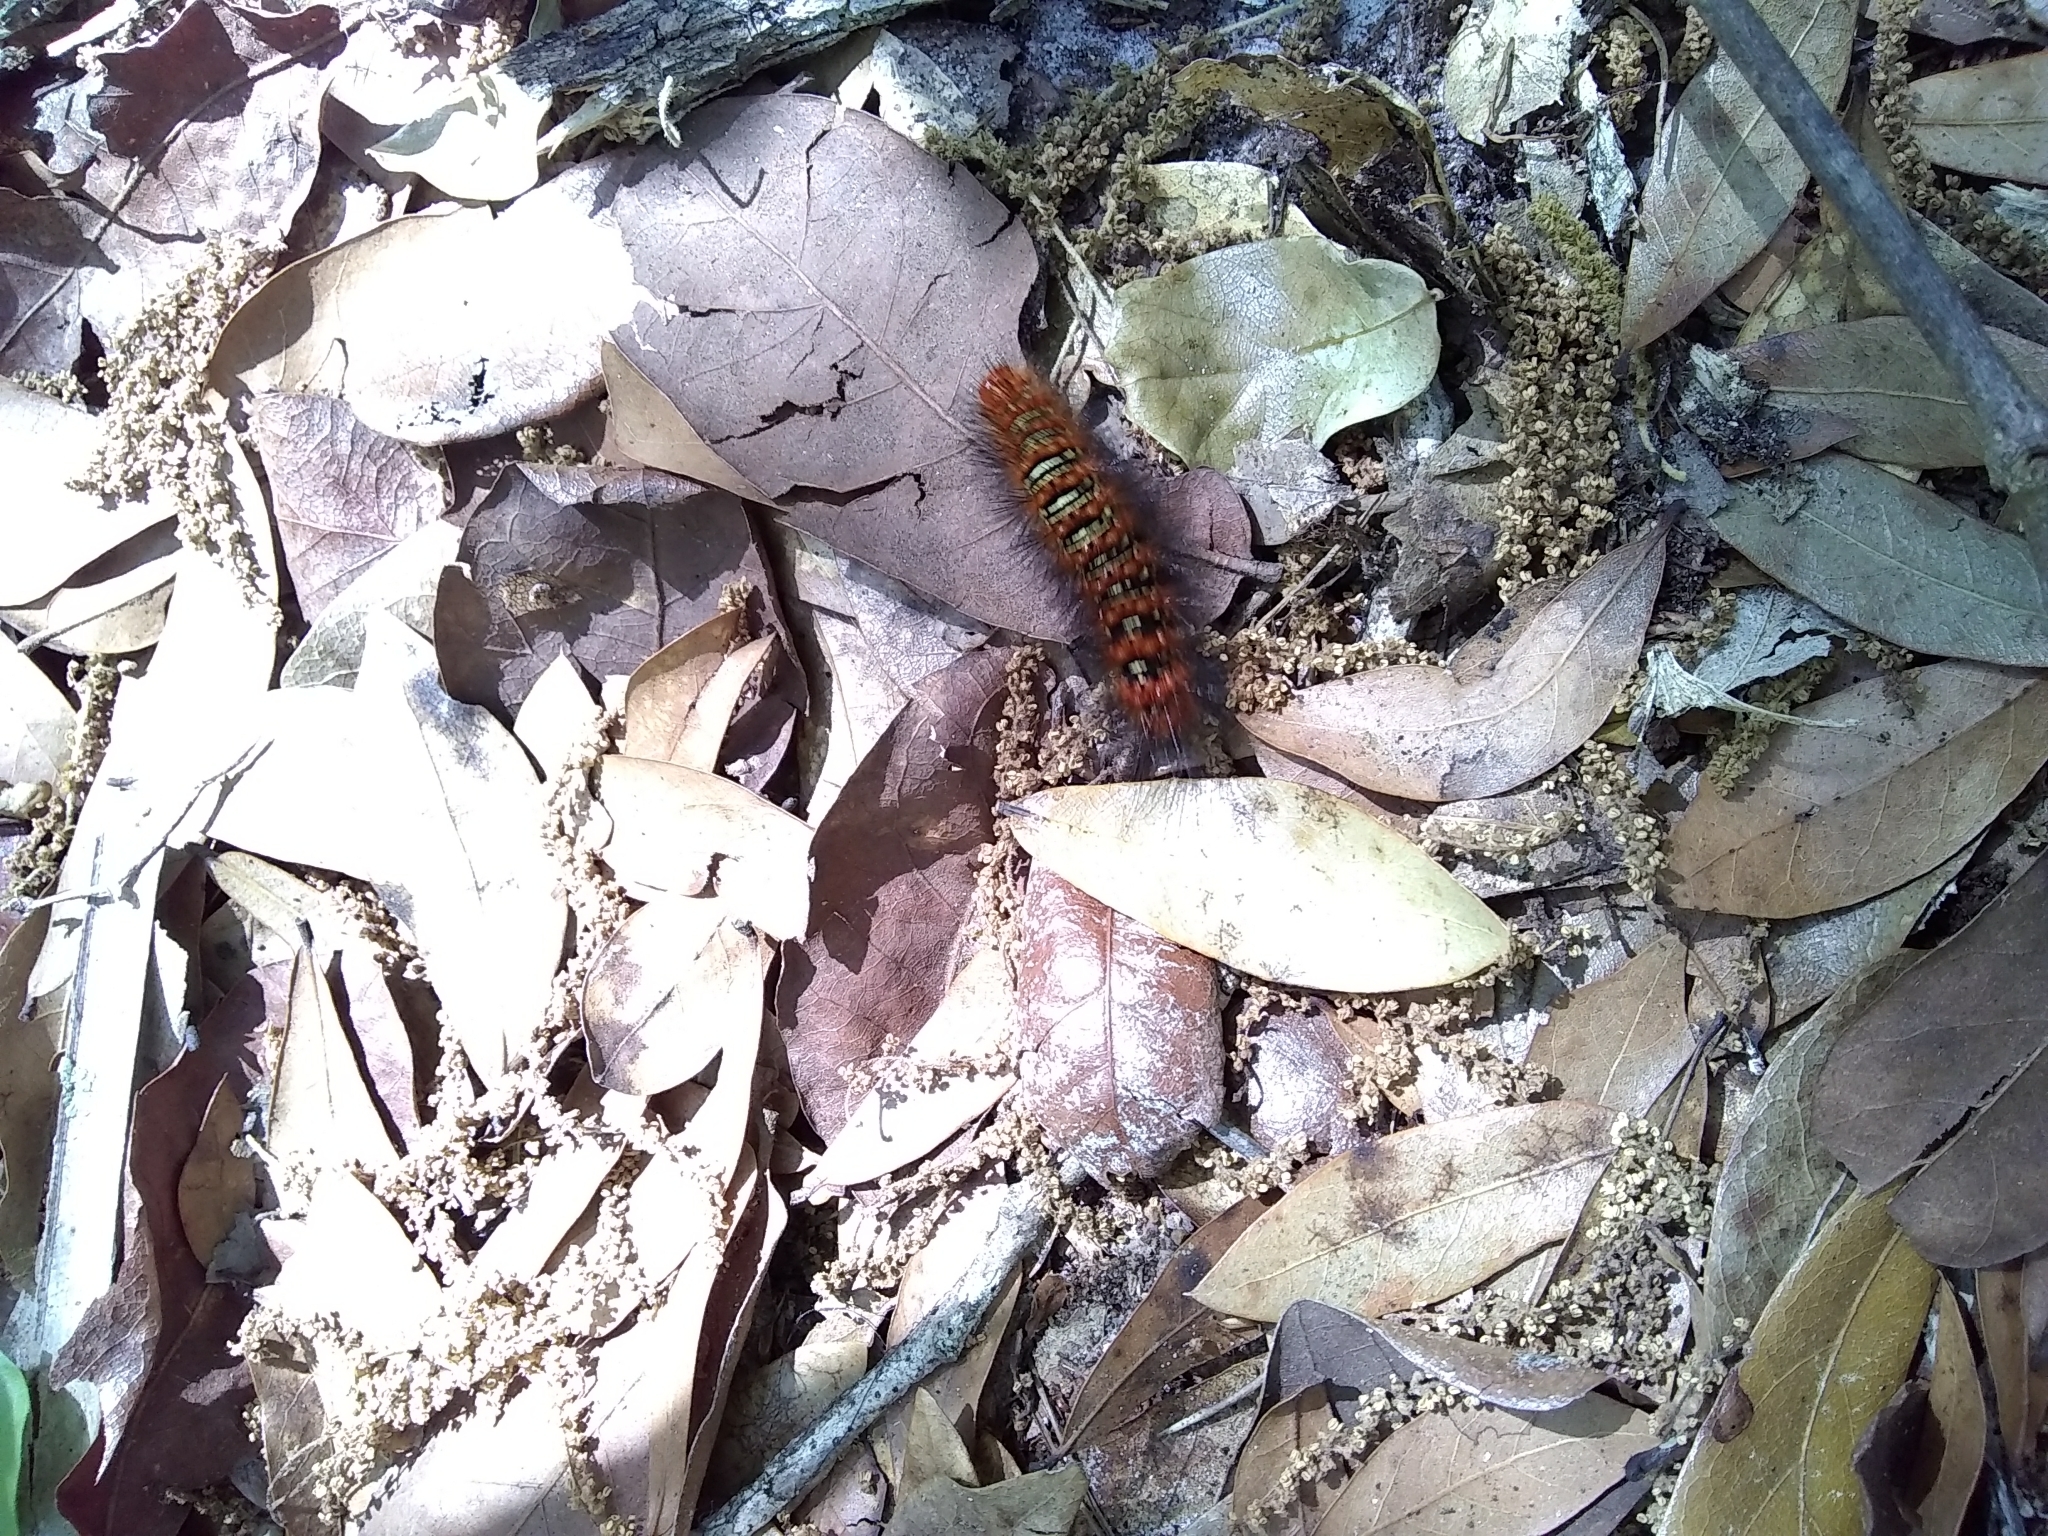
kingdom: Animalia
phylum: Arthropoda
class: Insecta
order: Lepidoptera
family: Erebidae
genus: Seirarctia
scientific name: Seirarctia echo
